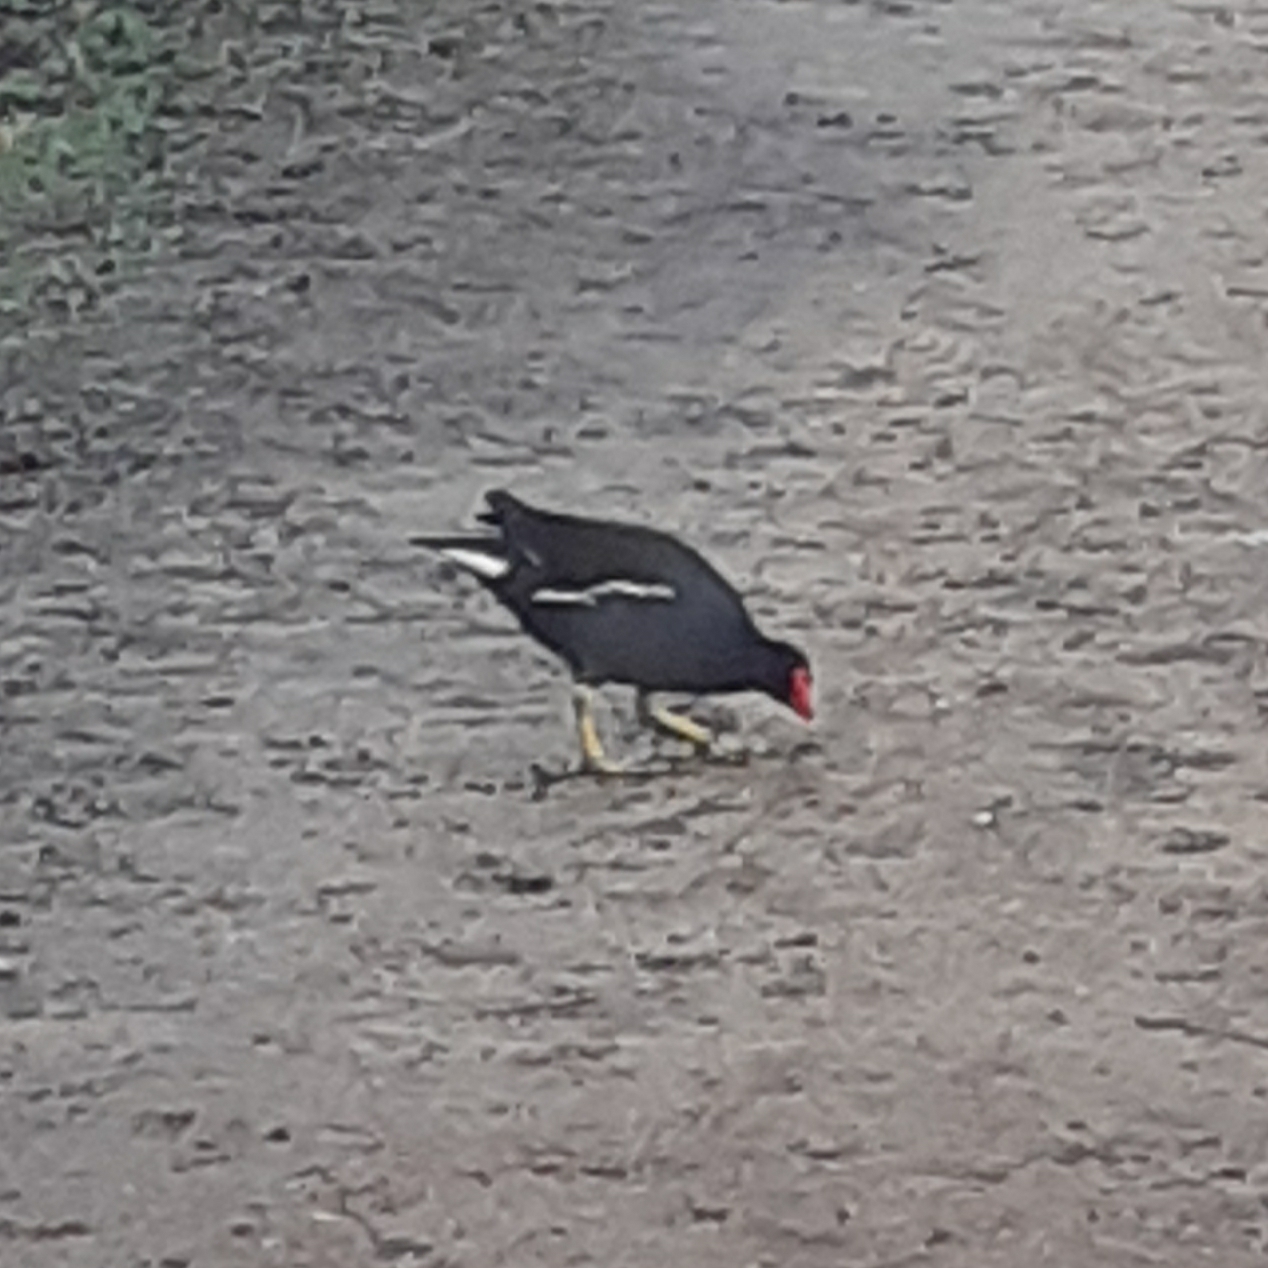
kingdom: Animalia
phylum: Chordata
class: Aves
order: Gruiformes
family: Rallidae
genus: Gallinula
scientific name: Gallinula chloropus
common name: Common moorhen
